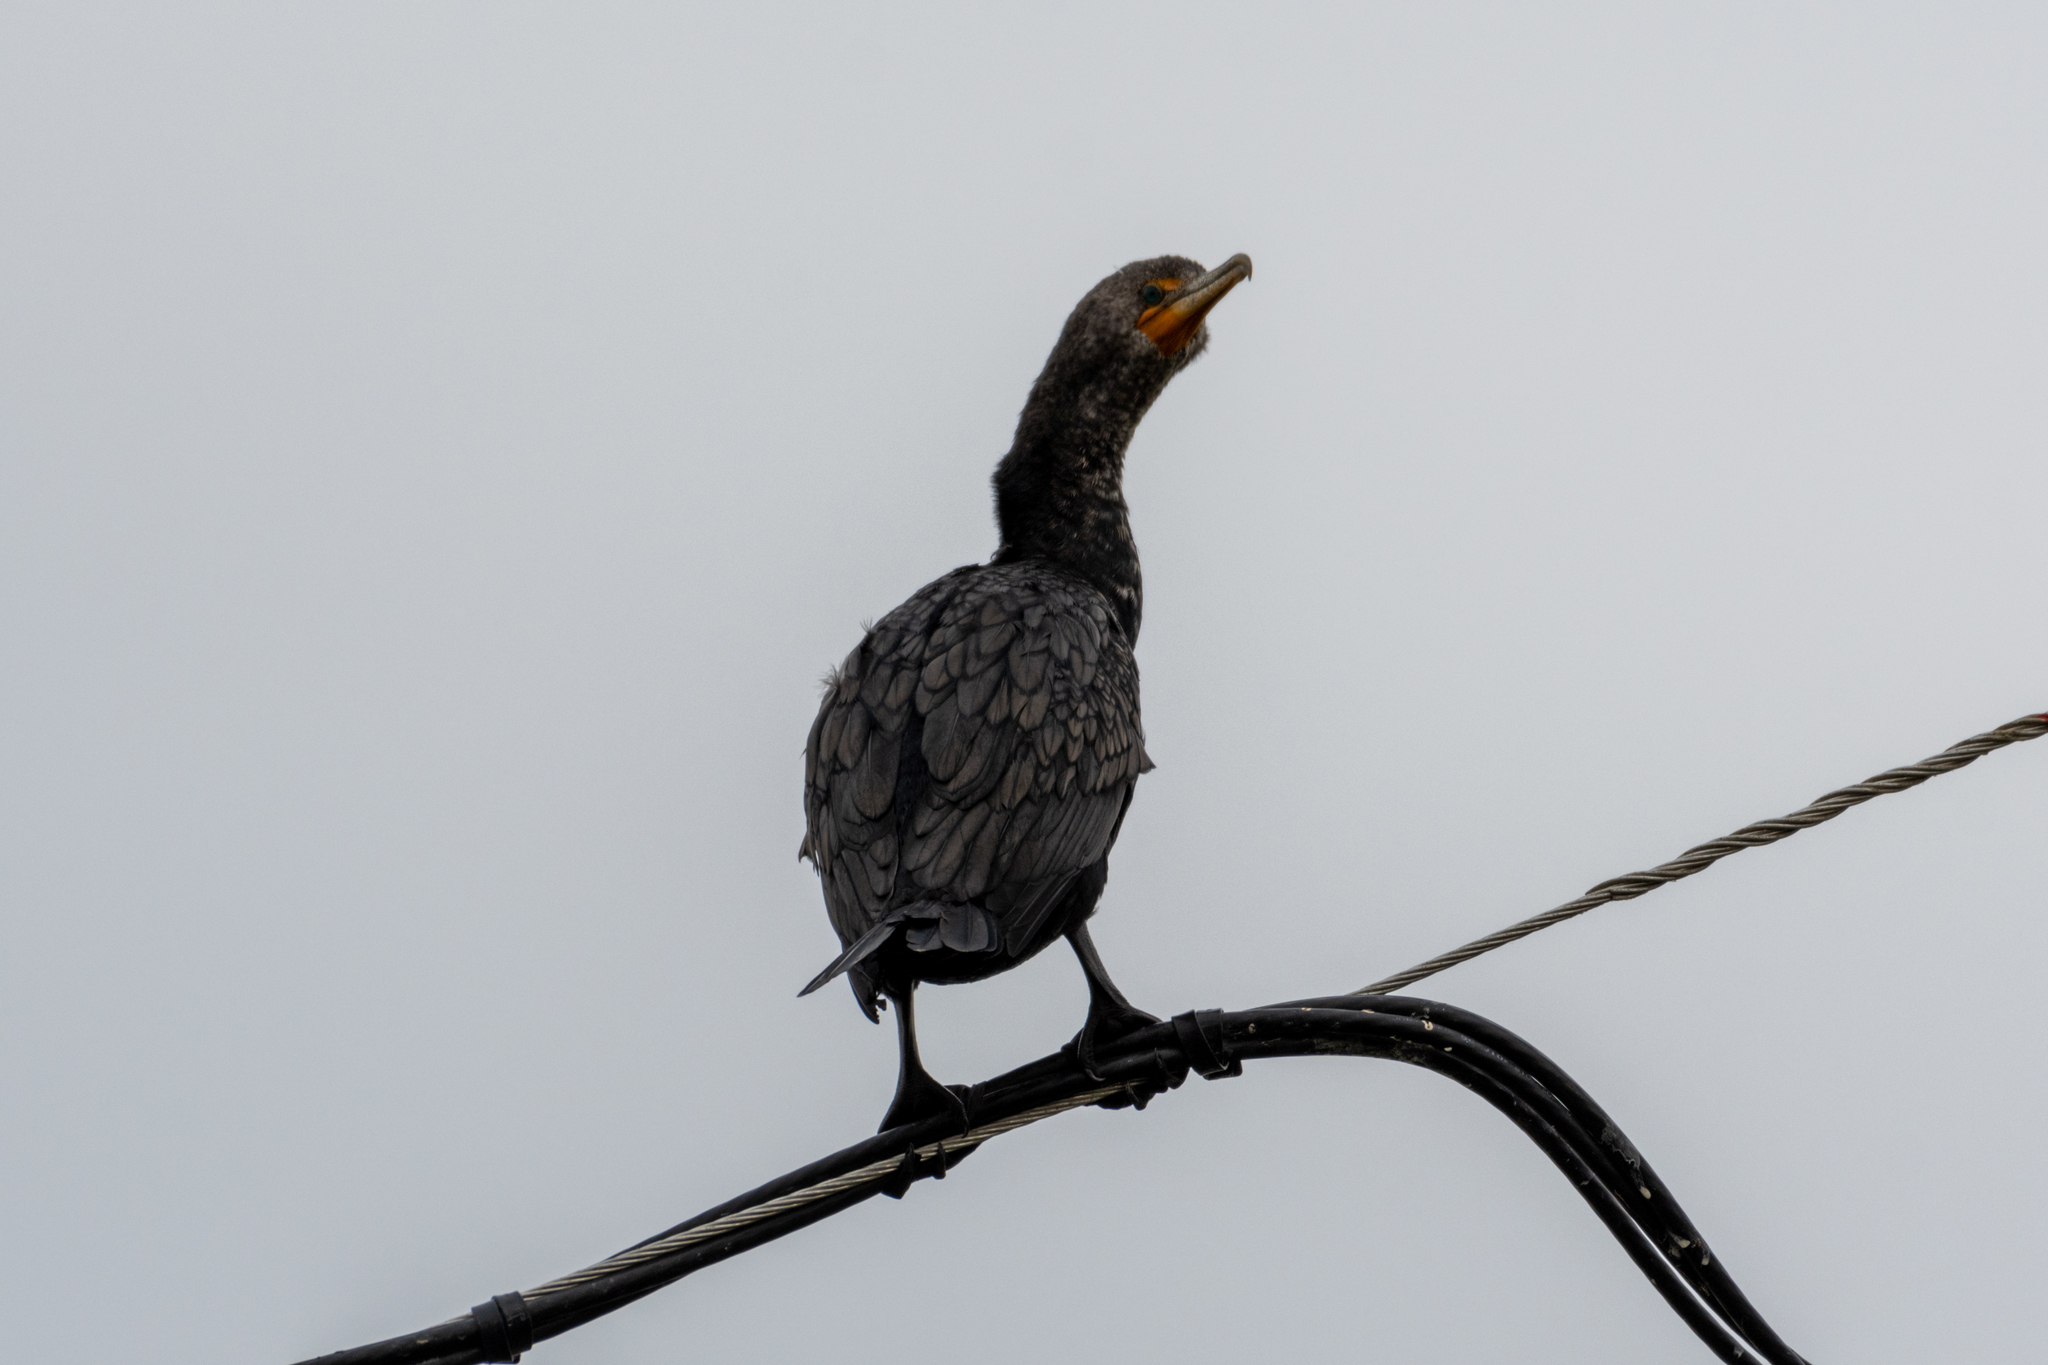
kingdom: Animalia
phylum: Chordata
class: Aves
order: Suliformes
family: Phalacrocoracidae
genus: Phalacrocorax
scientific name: Phalacrocorax auritus
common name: Double-crested cormorant
